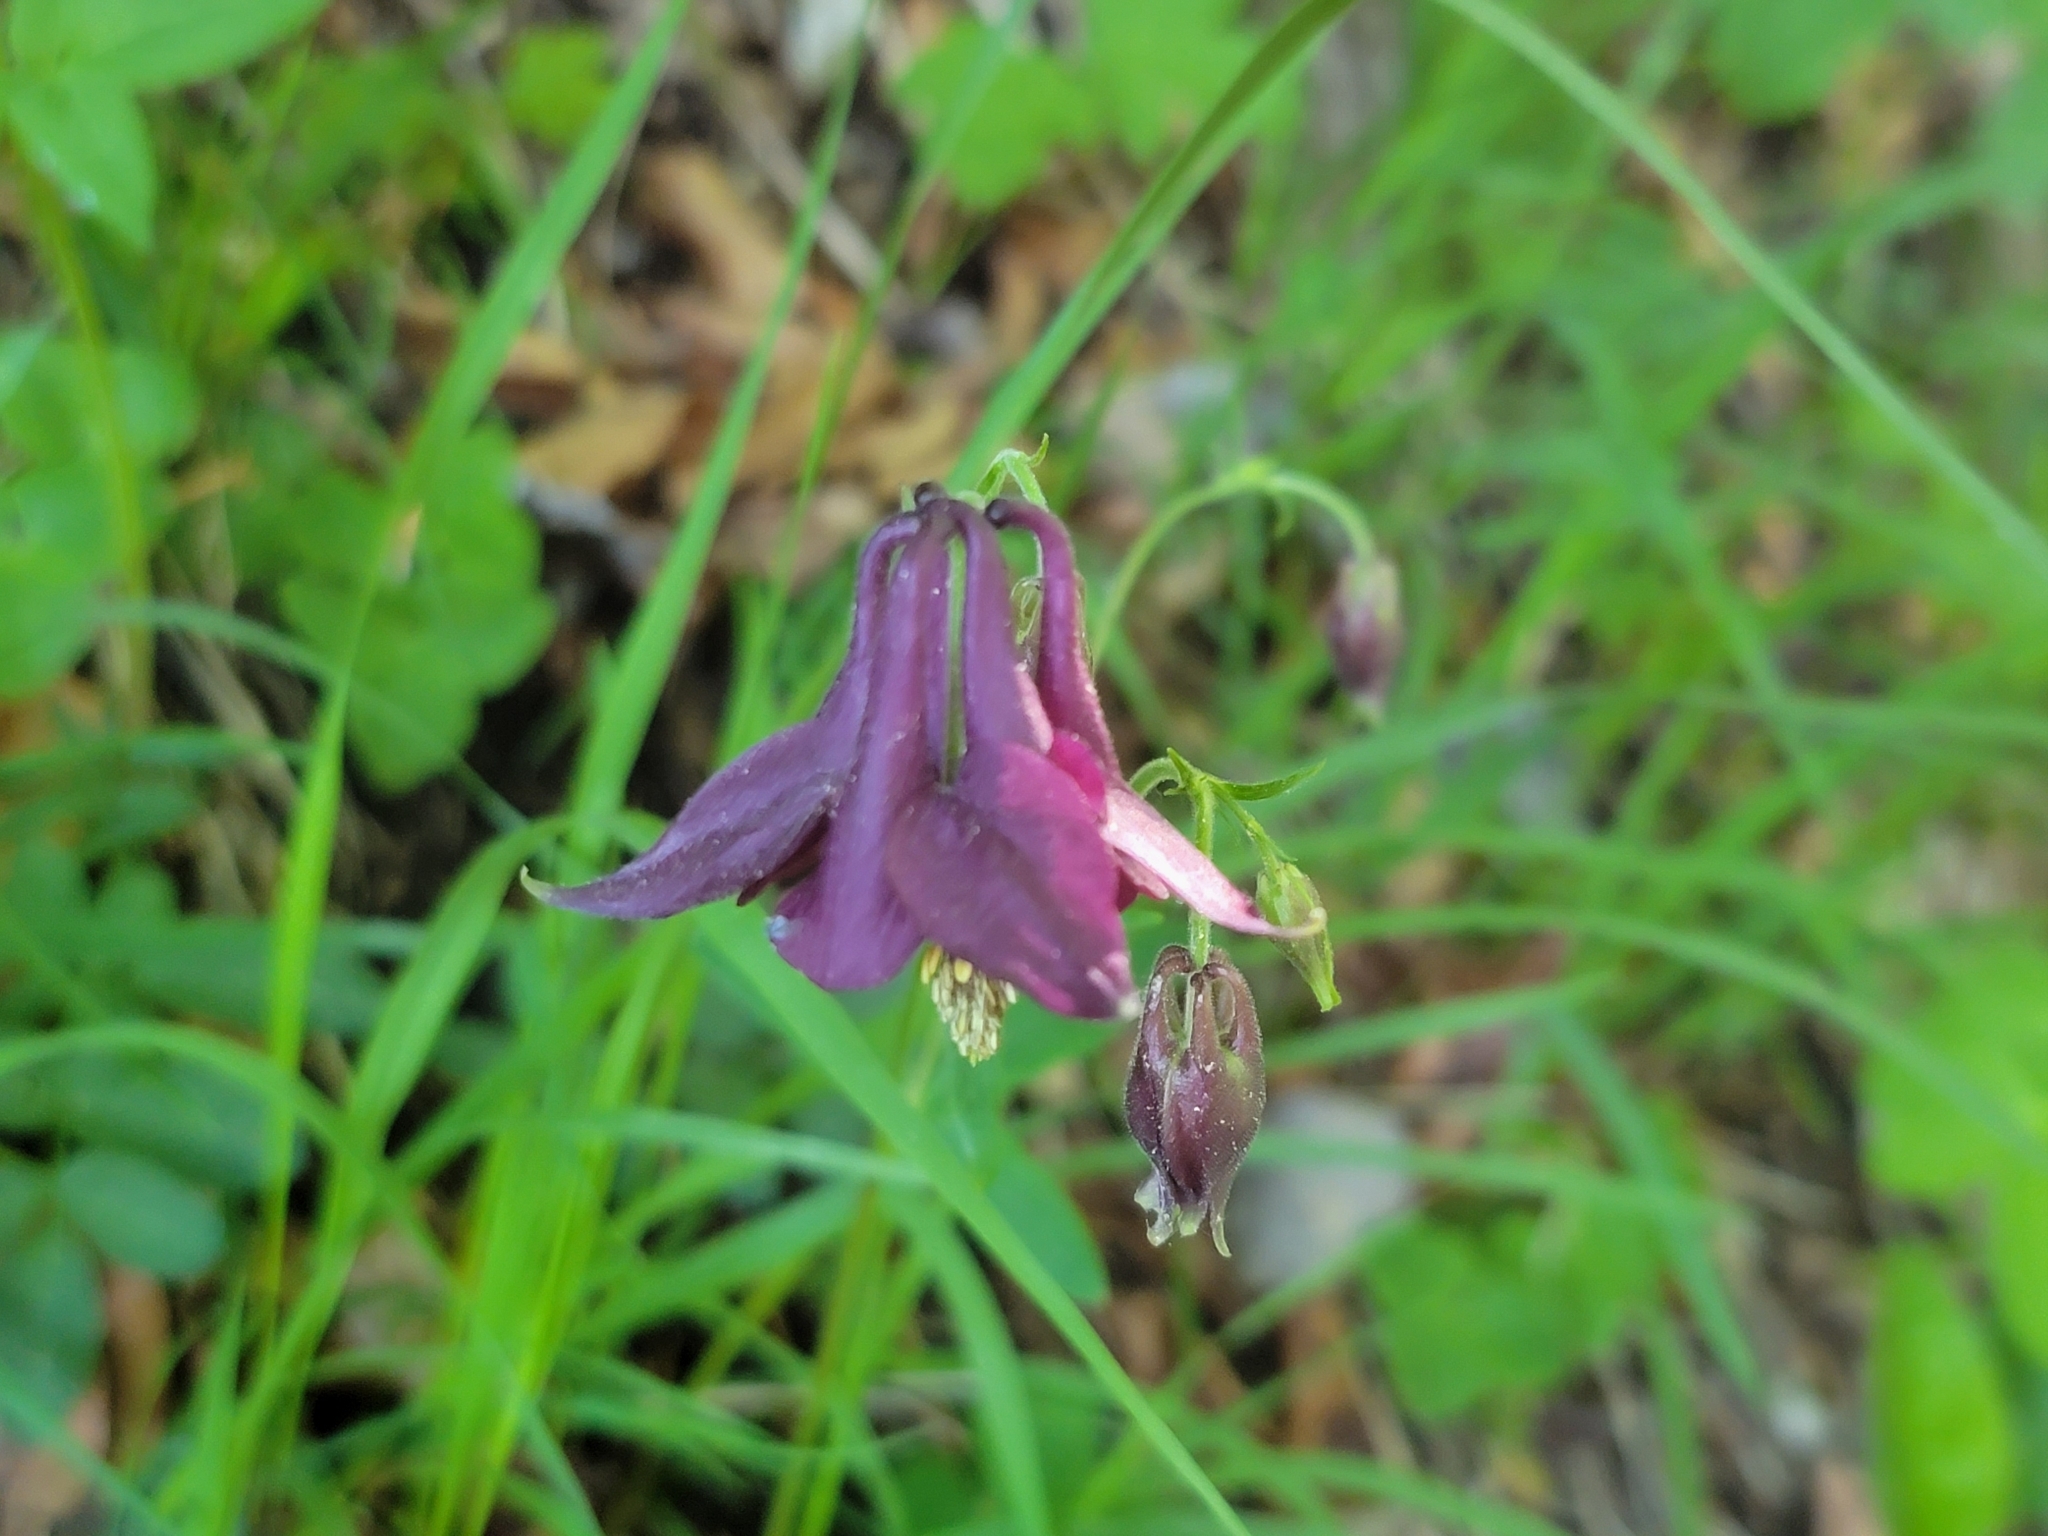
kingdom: Plantae
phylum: Tracheophyta
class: Magnoliopsida
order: Ranunculales
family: Ranunculaceae
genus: Aquilegia
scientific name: Aquilegia atrata
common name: Dark columbine
